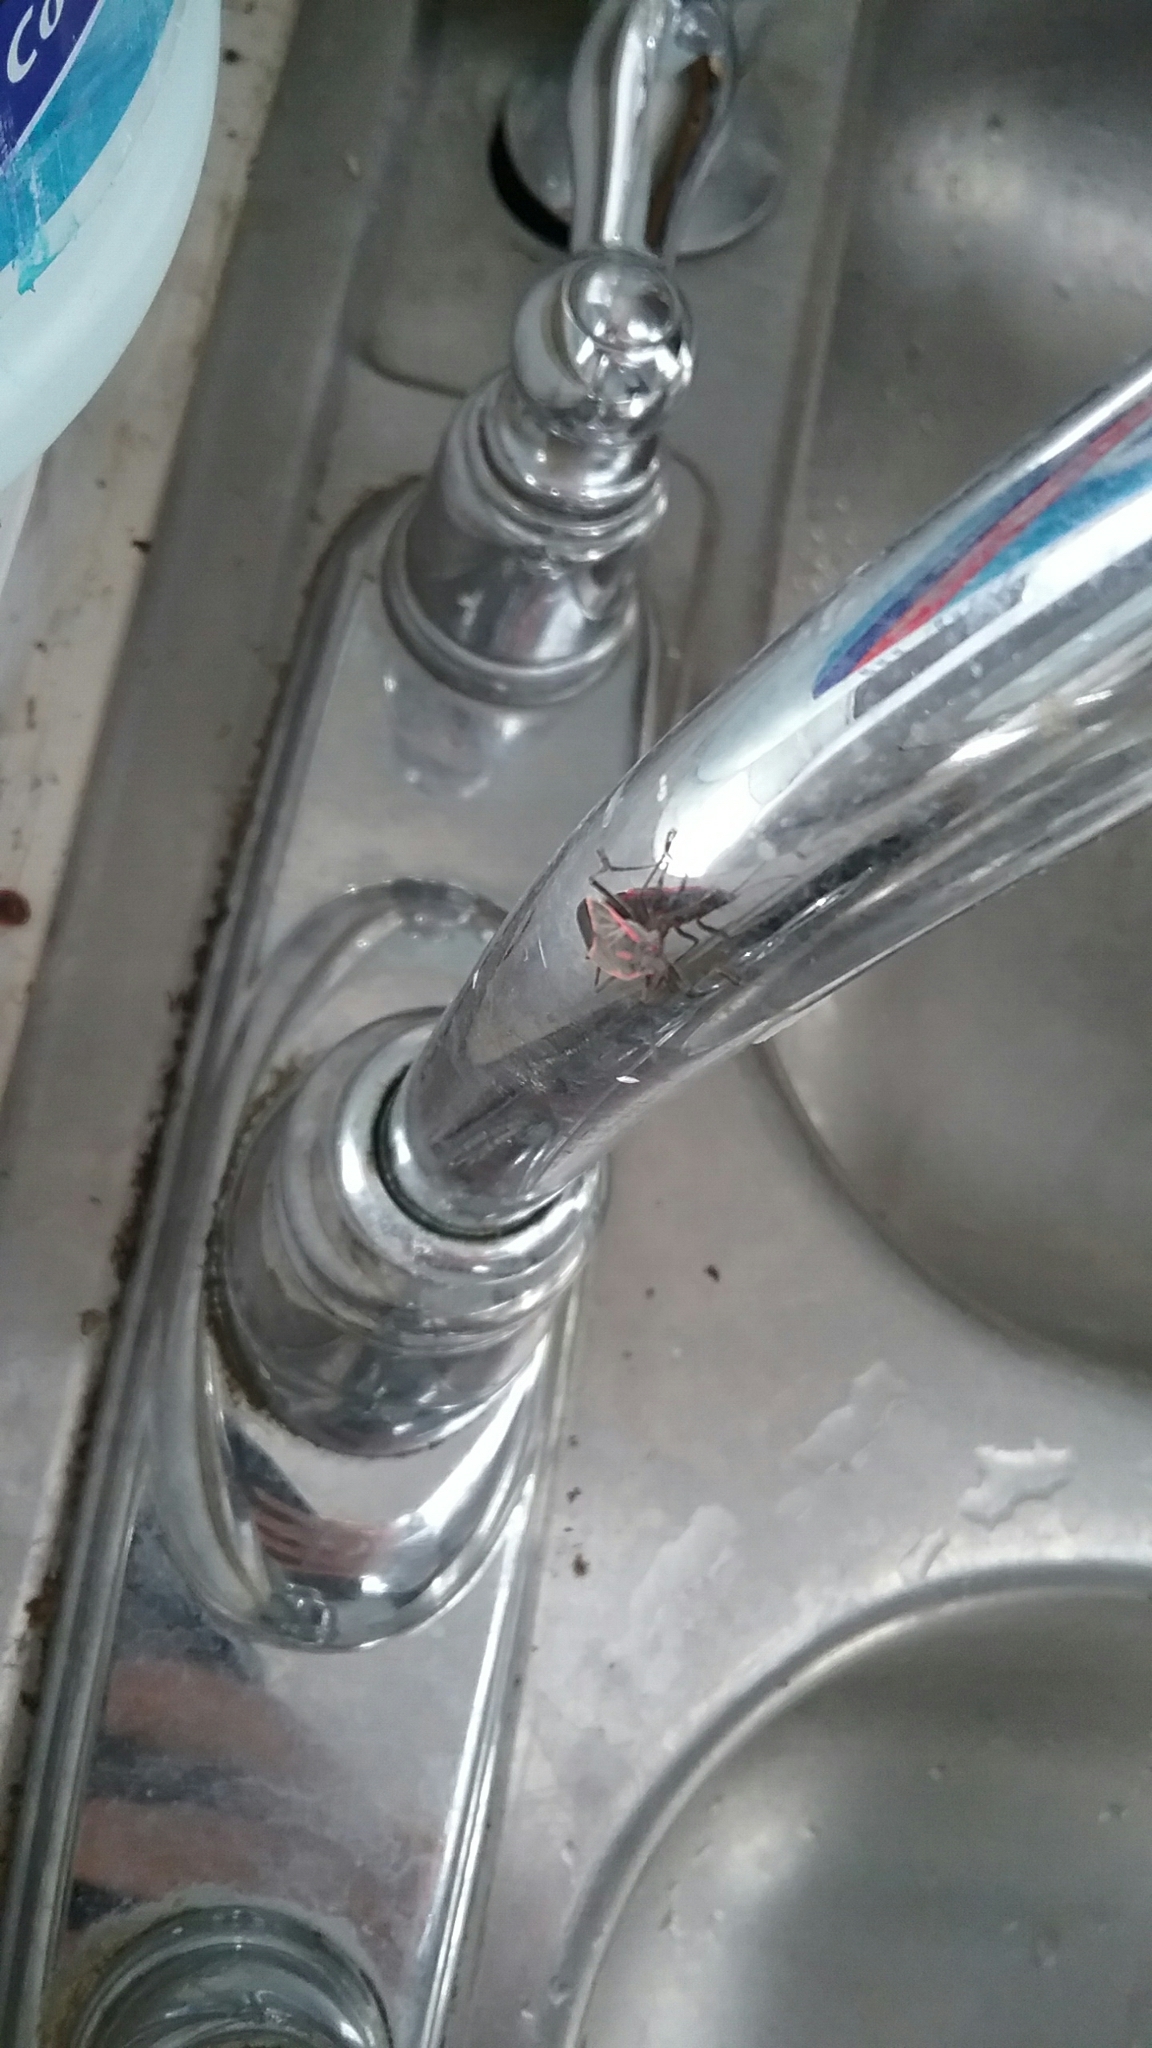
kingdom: Animalia
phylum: Arthropoda
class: Insecta
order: Hemiptera
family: Rhopalidae
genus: Boisea
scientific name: Boisea trivittata
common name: Boxelder bug
